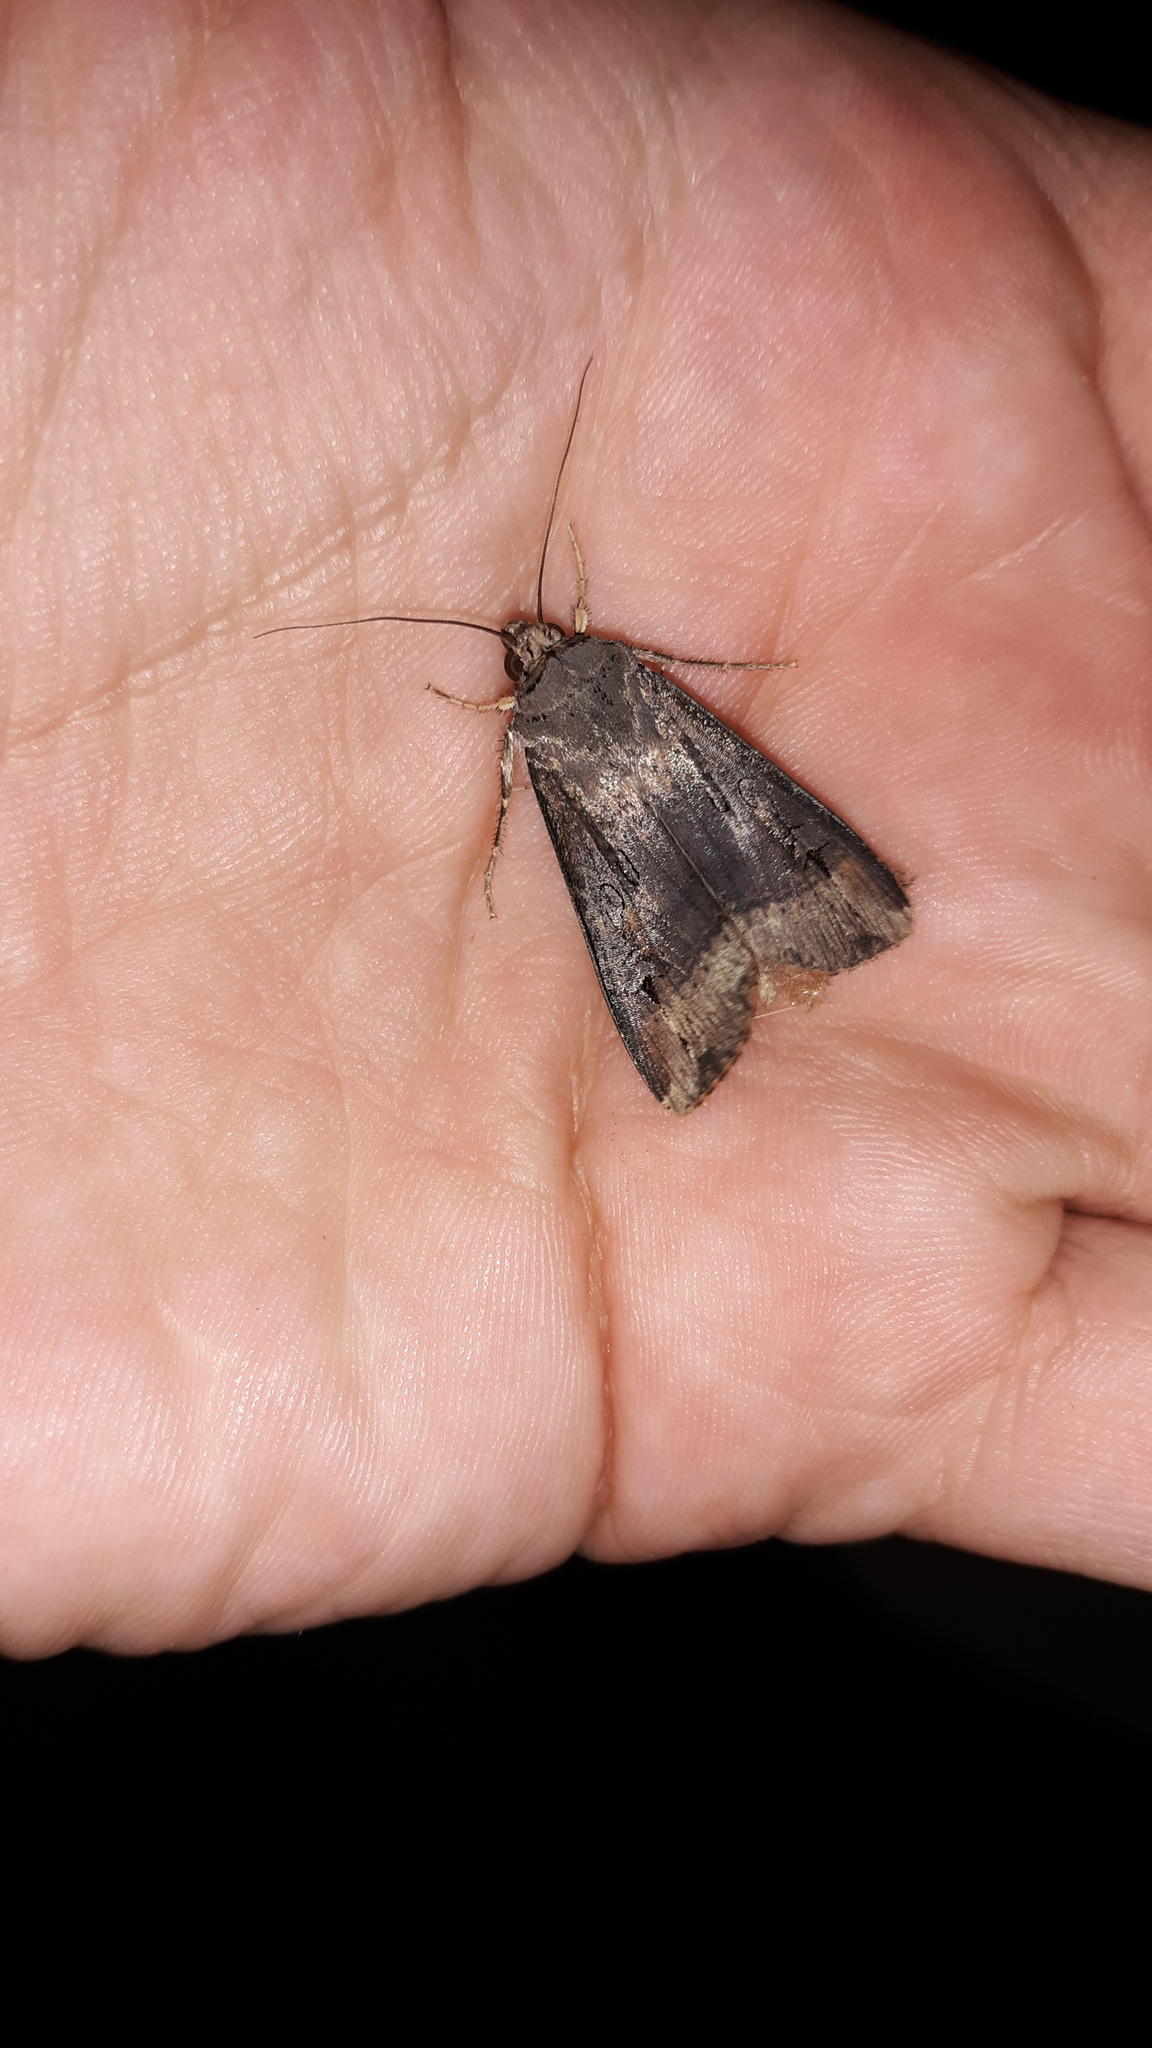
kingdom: Animalia
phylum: Arthropoda
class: Insecta
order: Lepidoptera
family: Noctuidae
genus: Agrotis
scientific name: Agrotis ipsilon
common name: Dark sword-grass
